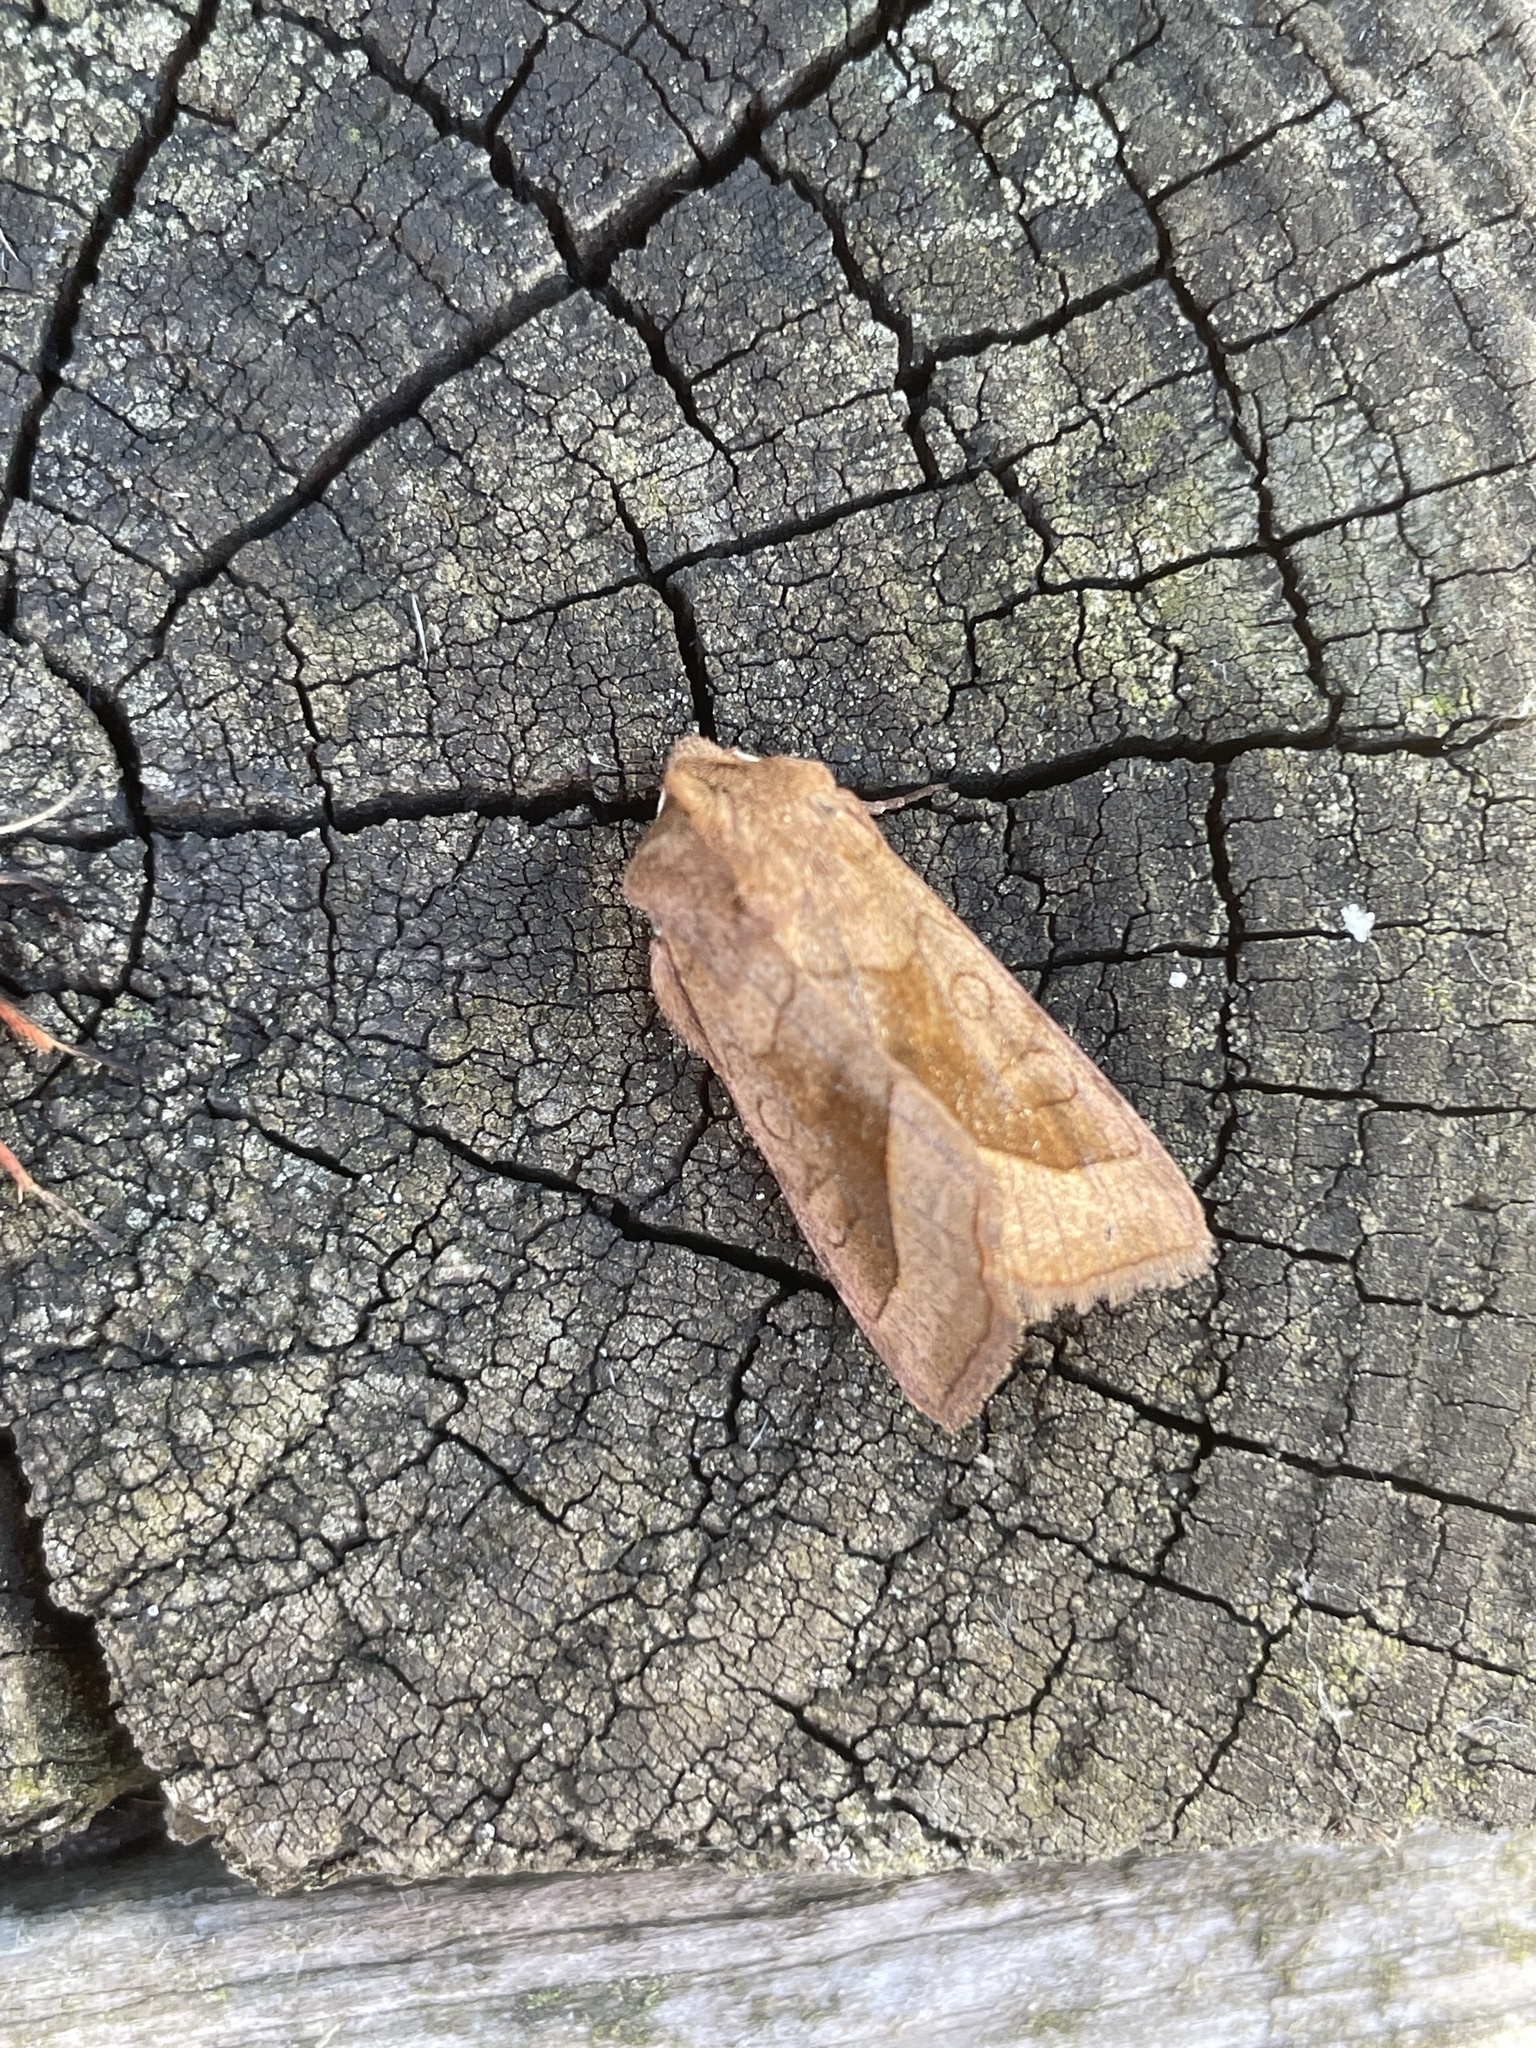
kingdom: Animalia
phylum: Arthropoda
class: Insecta
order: Lepidoptera
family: Noctuidae
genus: Hydraecia
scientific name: Hydraecia micacea
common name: Rosy rustic
